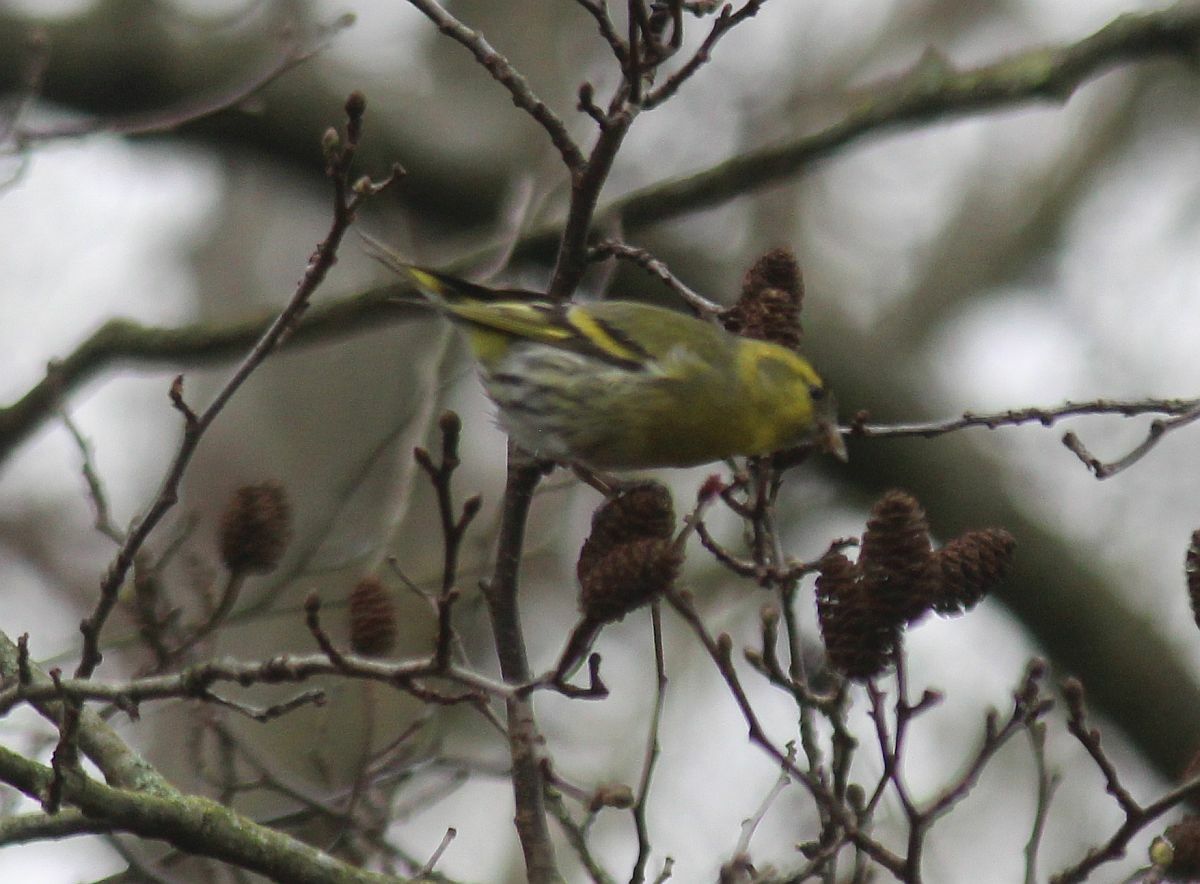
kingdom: Animalia
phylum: Chordata
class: Aves
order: Passeriformes
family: Fringillidae
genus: Spinus
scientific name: Spinus spinus
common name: Eurasian siskin
